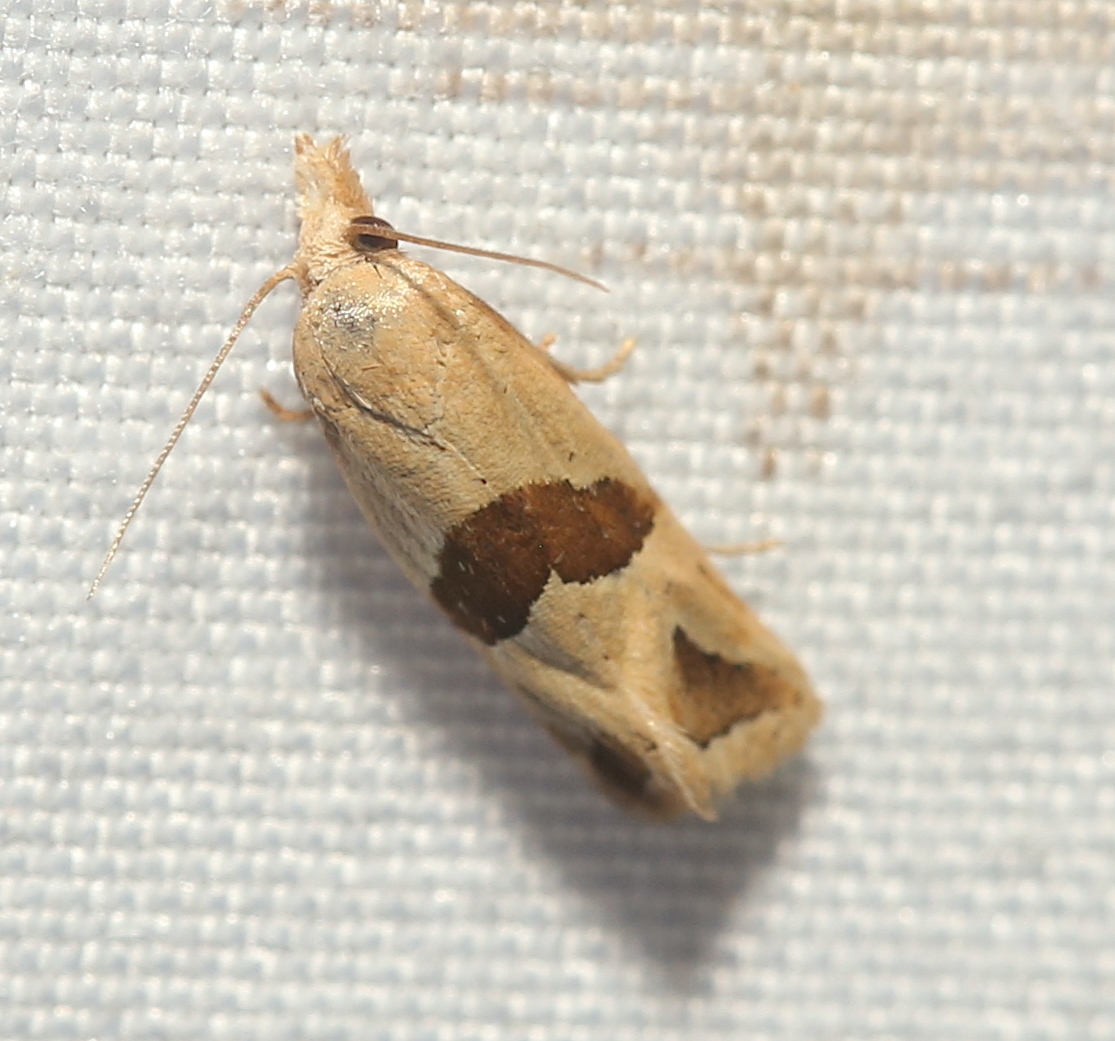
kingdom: Animalia
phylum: Arthropoda
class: Insecta
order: Lepidoptera
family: Tortricidae
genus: Eugnosta
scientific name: Eugnosta sartana
